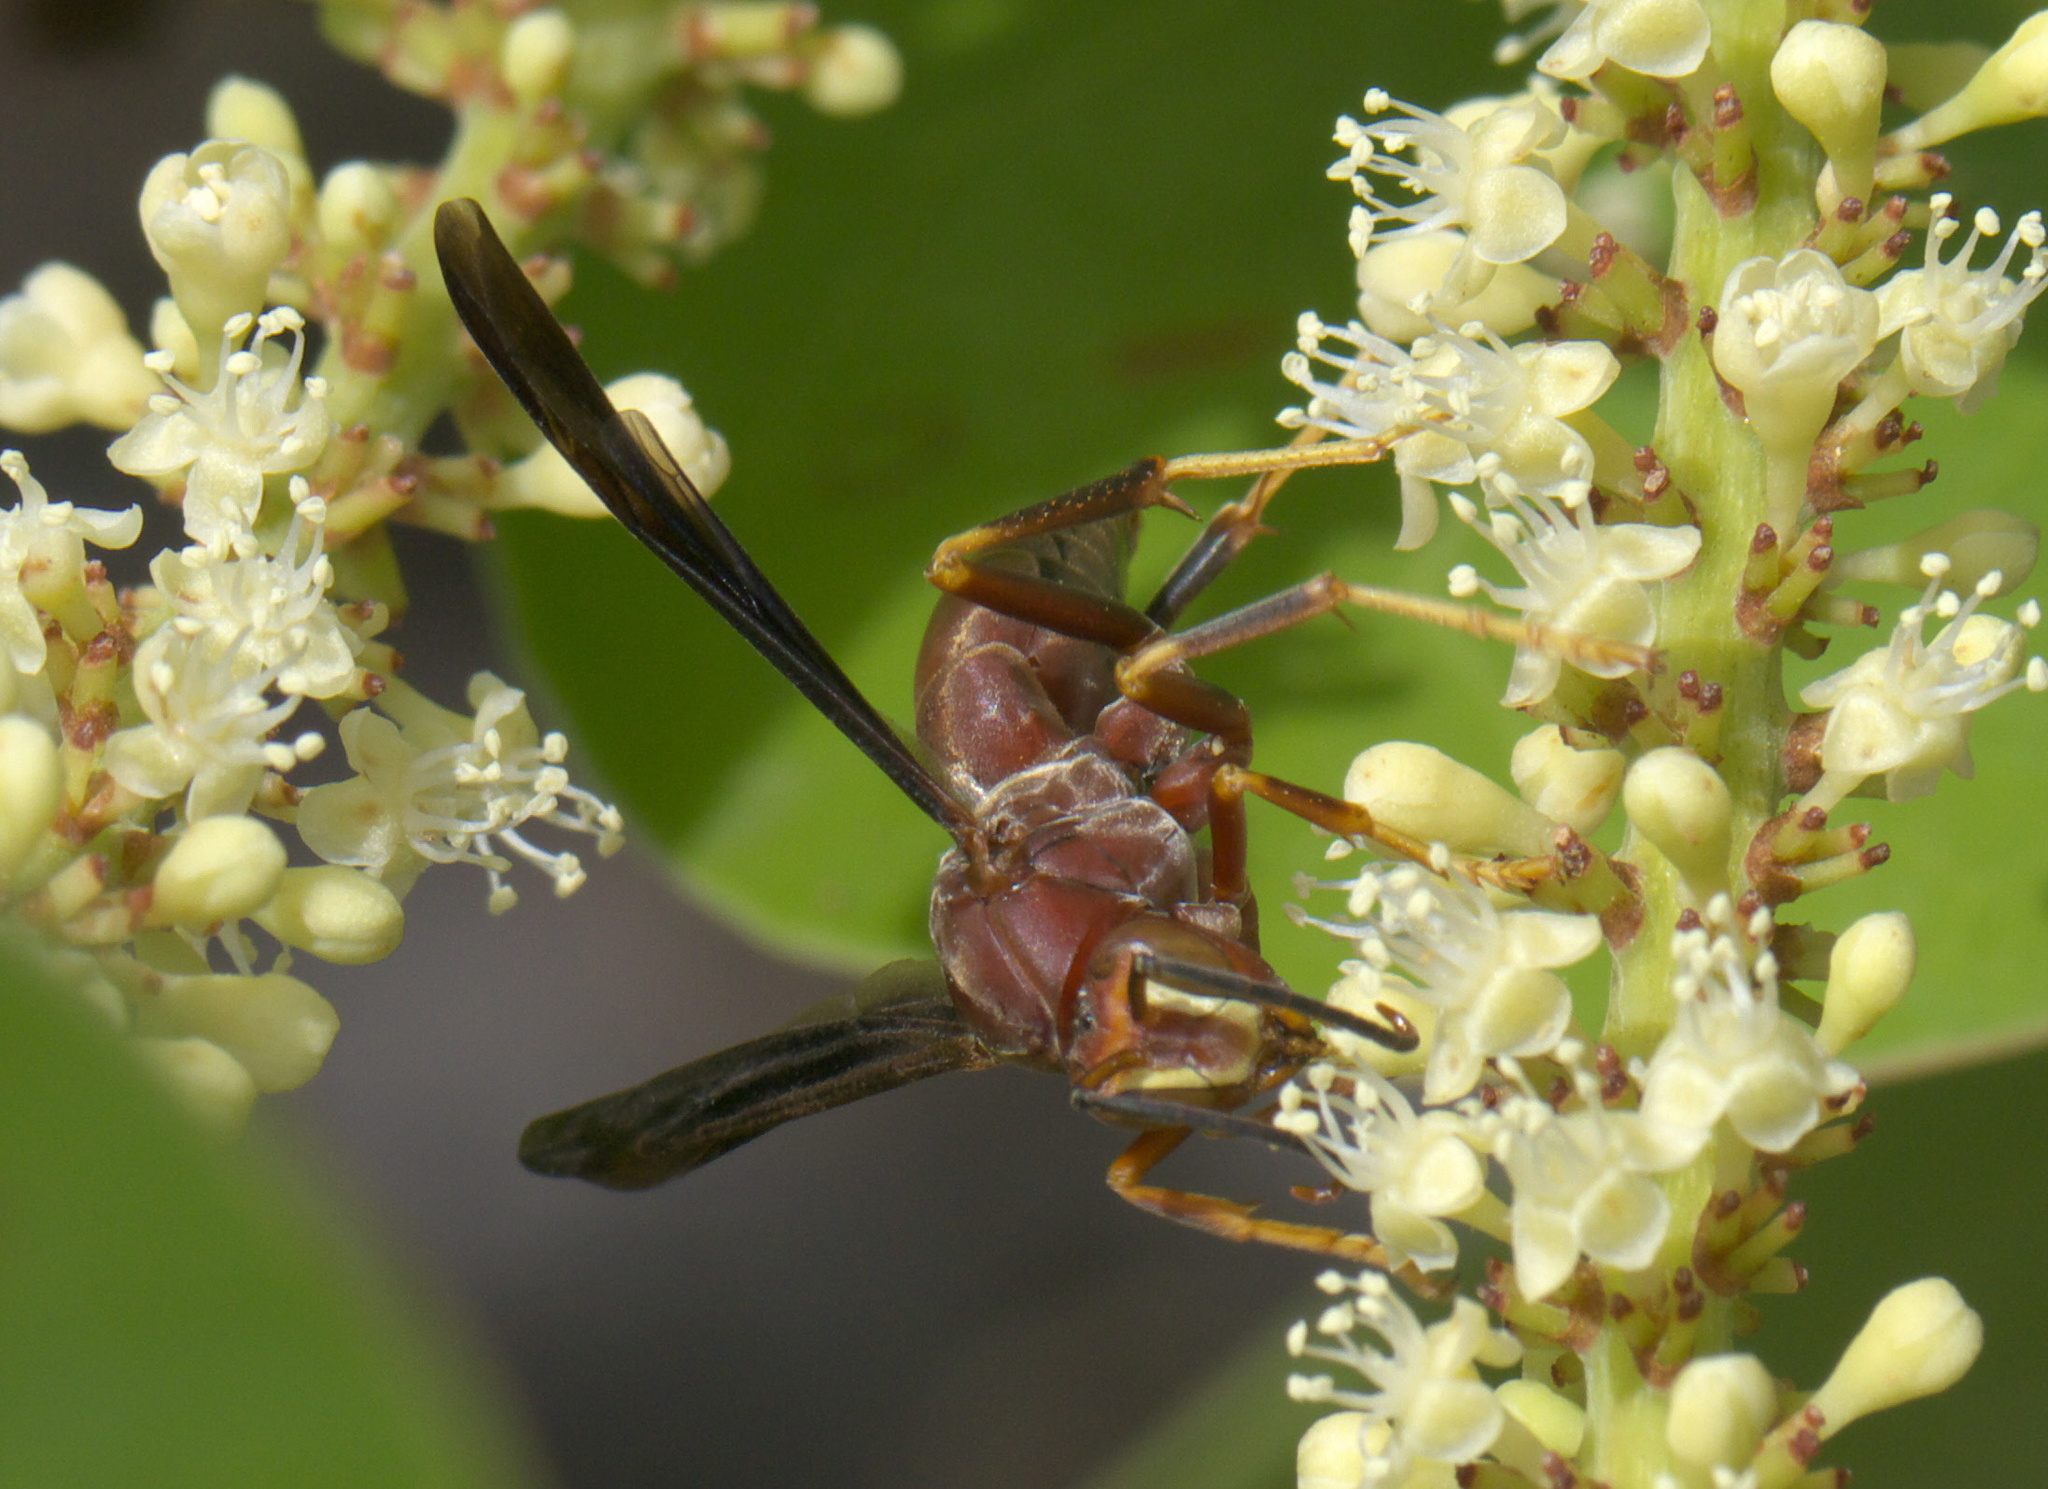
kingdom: Animalia
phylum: Arthropoda
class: Insecta
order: Hymenoptera
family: Eumenidae
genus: Polistes
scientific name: Polistes metricus
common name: Metric paper wasp
